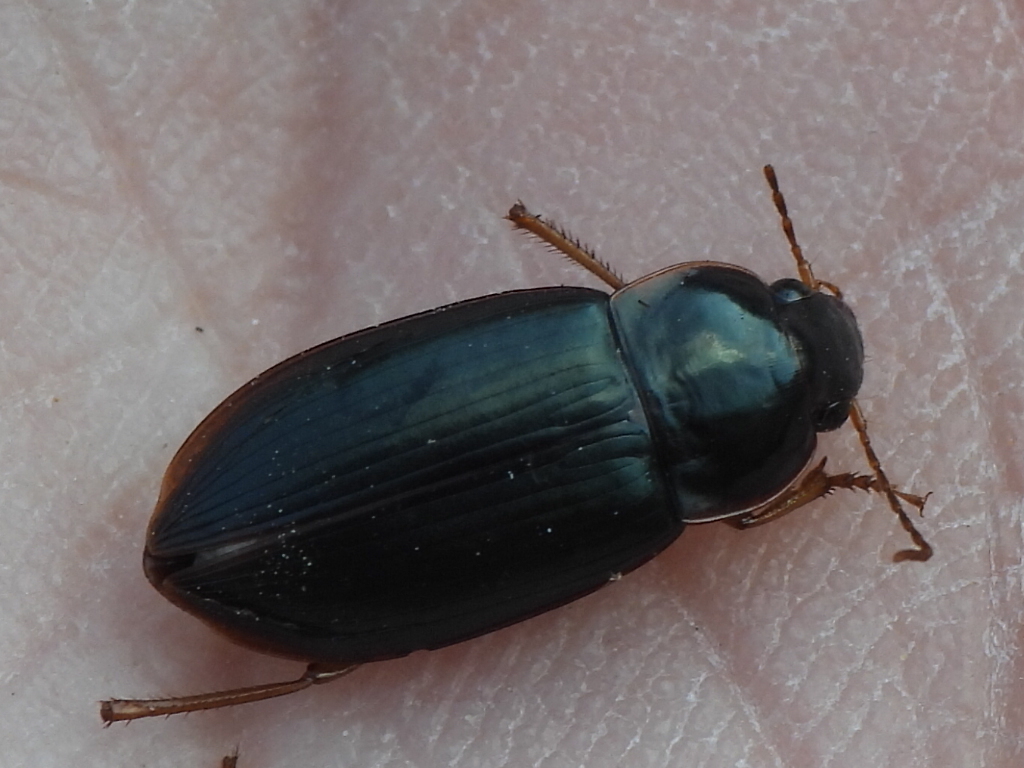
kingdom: Animalia
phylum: Arthropoda
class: Insecta
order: Coleoptera
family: Carabidae
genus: Notiobia
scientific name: Notiobia terminata
